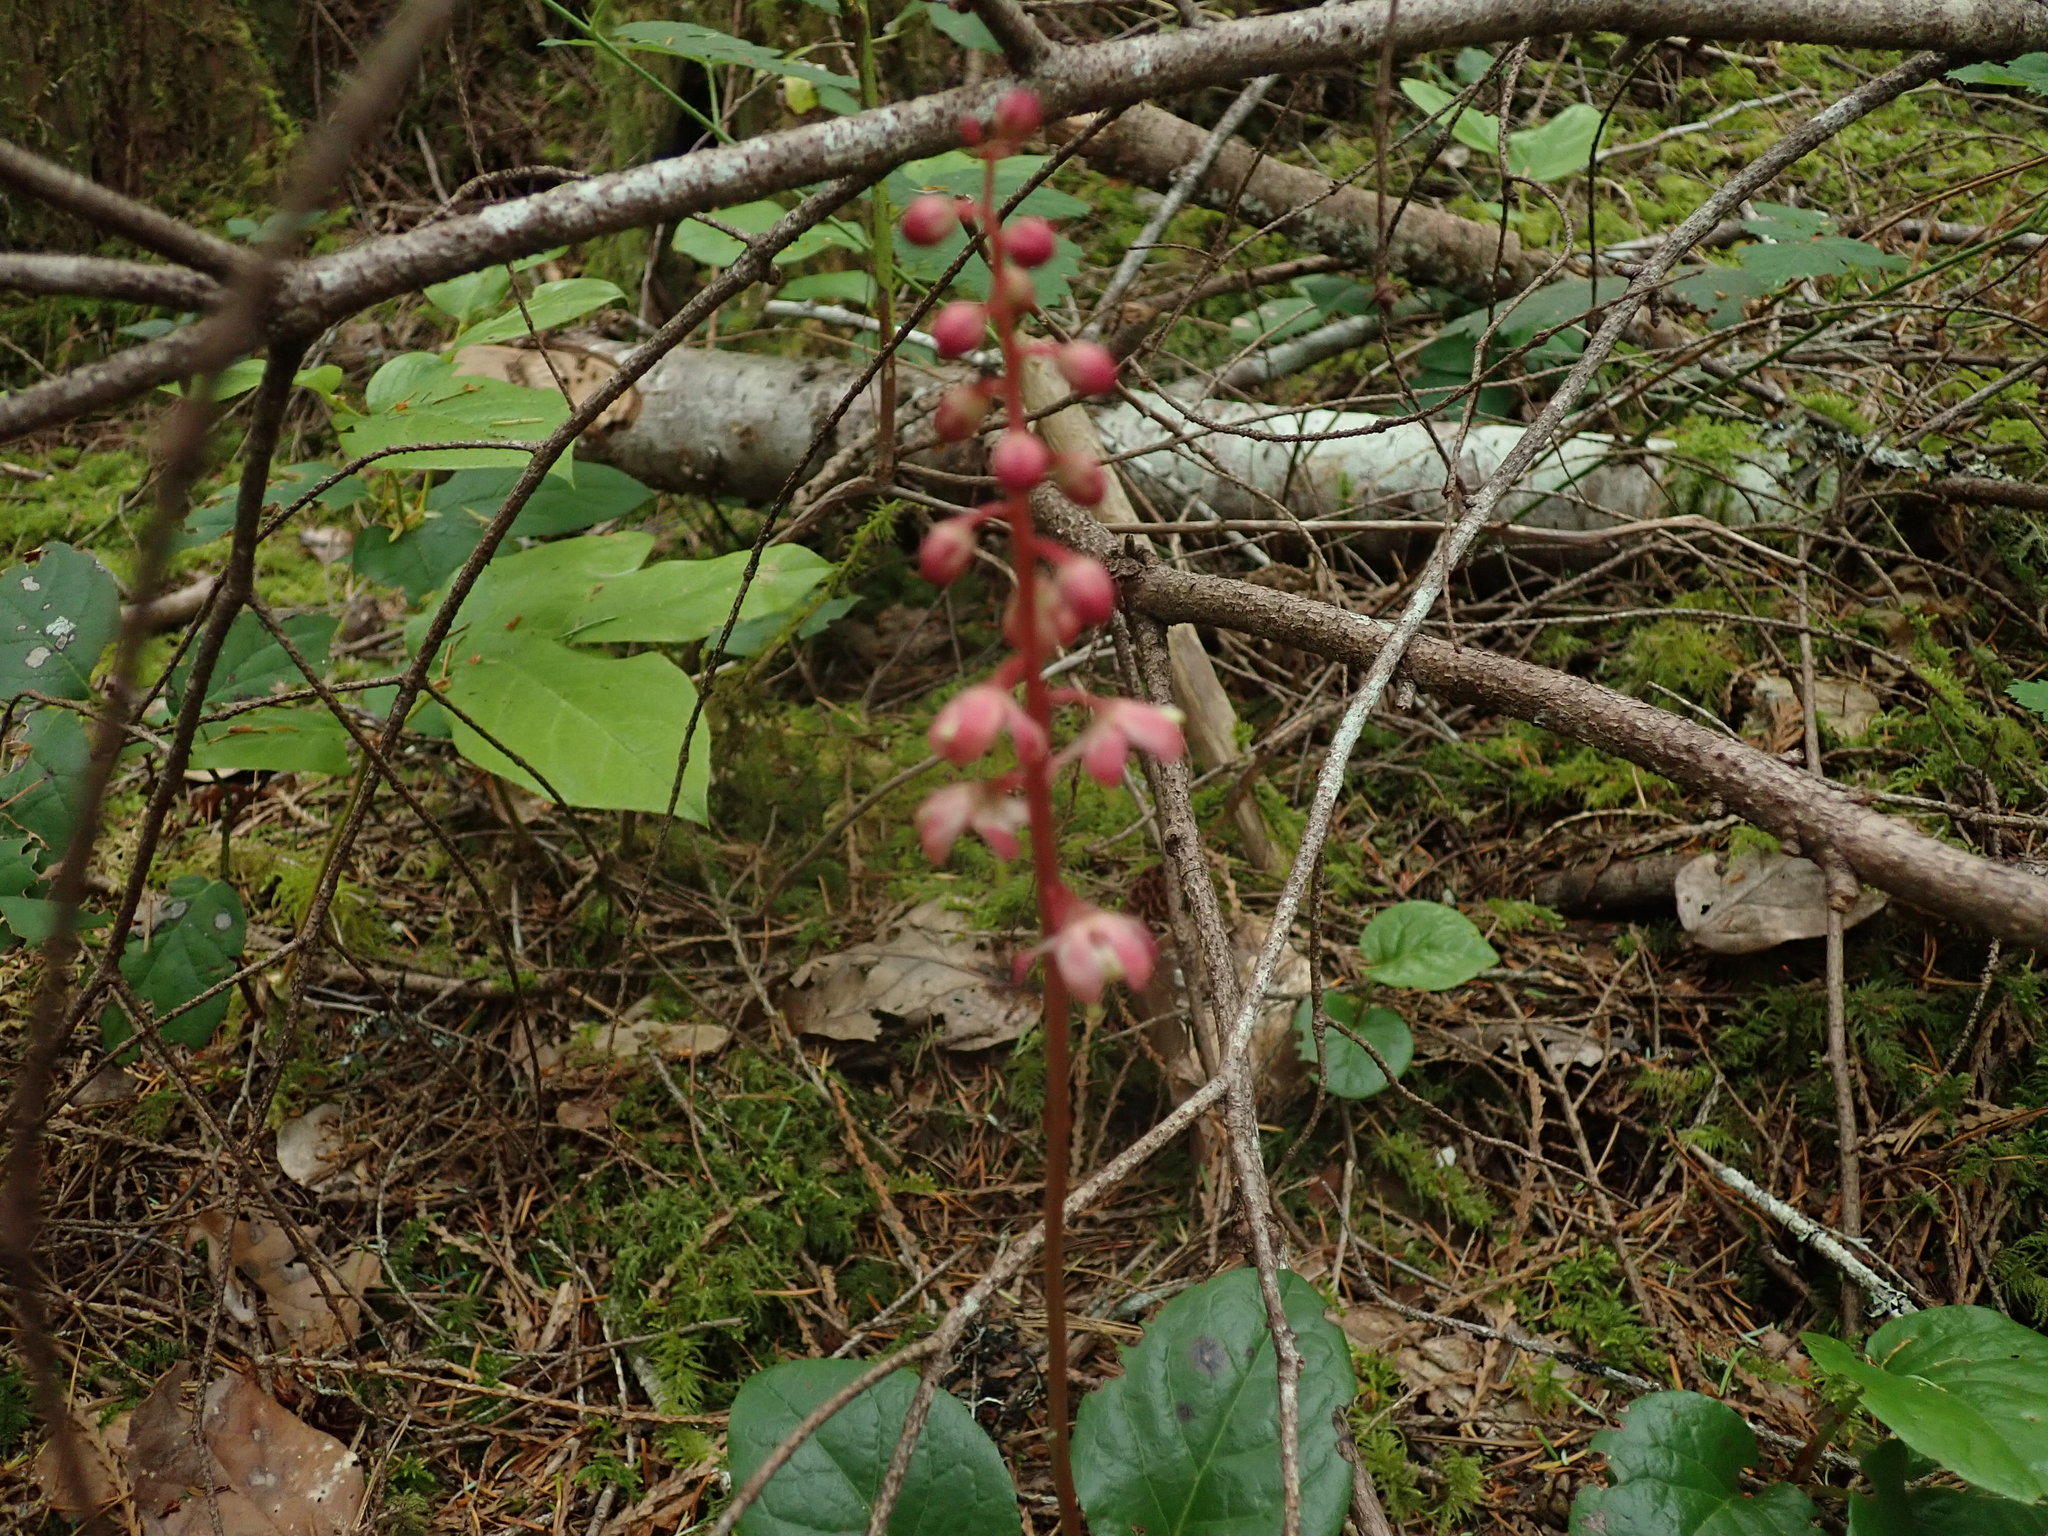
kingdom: Plantae
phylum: Tracheophyta
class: Magnoliopsida
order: Ericales
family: Ericaceae
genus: Pyrola
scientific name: Pyrola asarifolia
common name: Bog wintergreen
